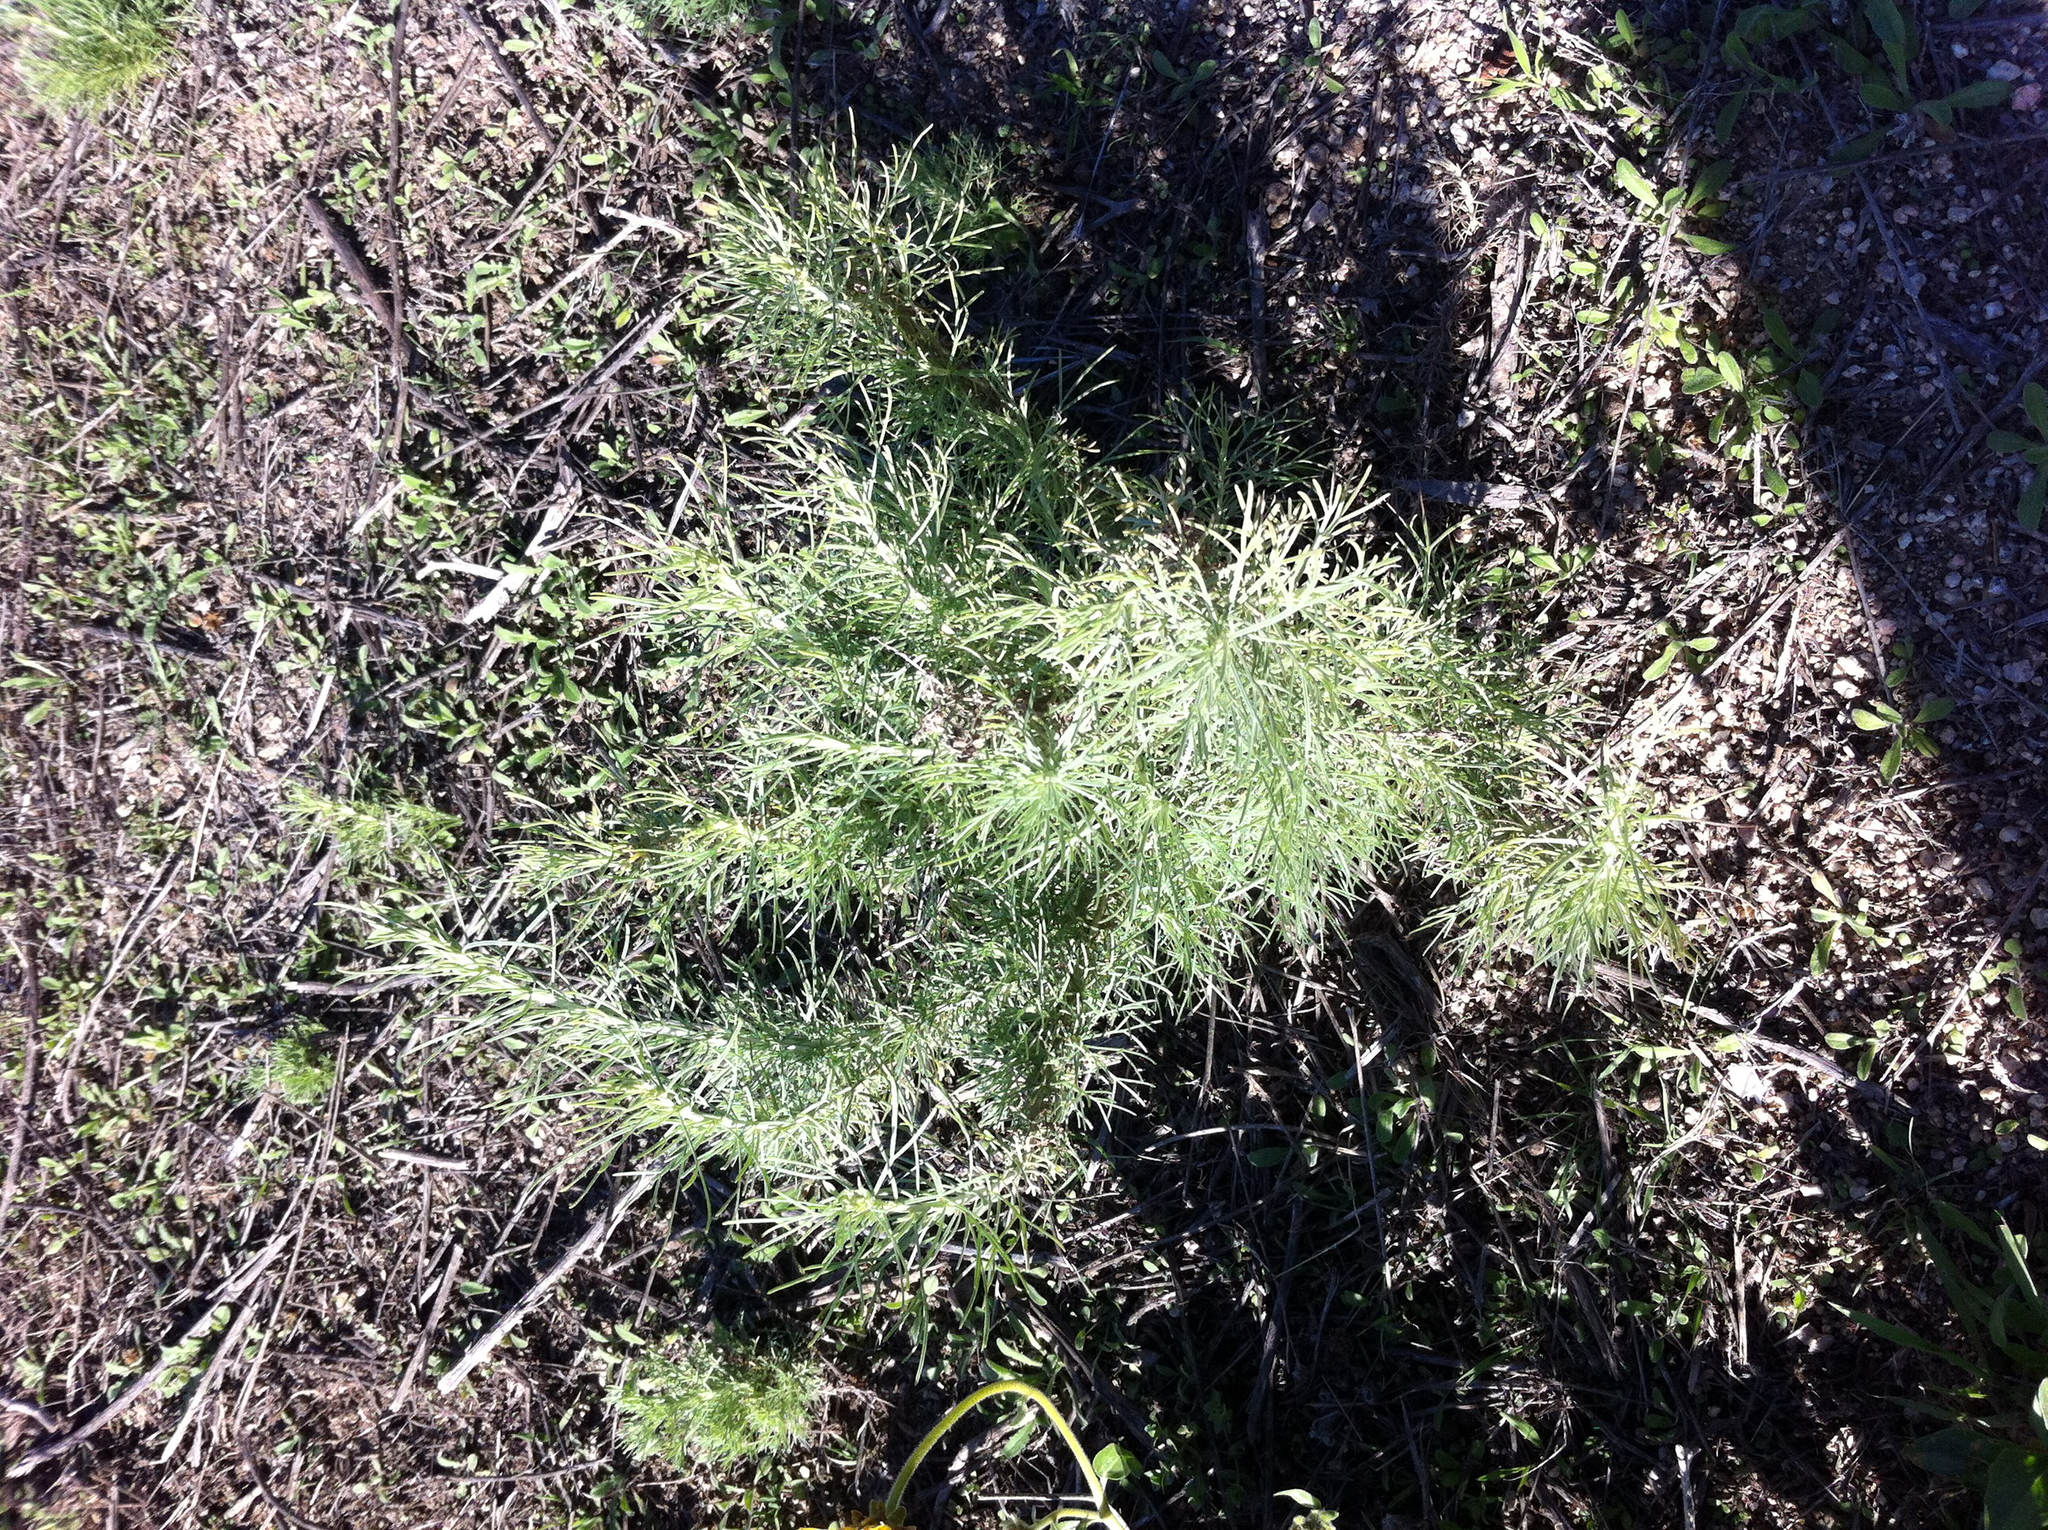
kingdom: Plantae
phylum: Tracheophyta
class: Magnoliopsida
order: Asterales
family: Asteraceae
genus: Artemisia
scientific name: Artemisia californica
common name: California sagebrush
